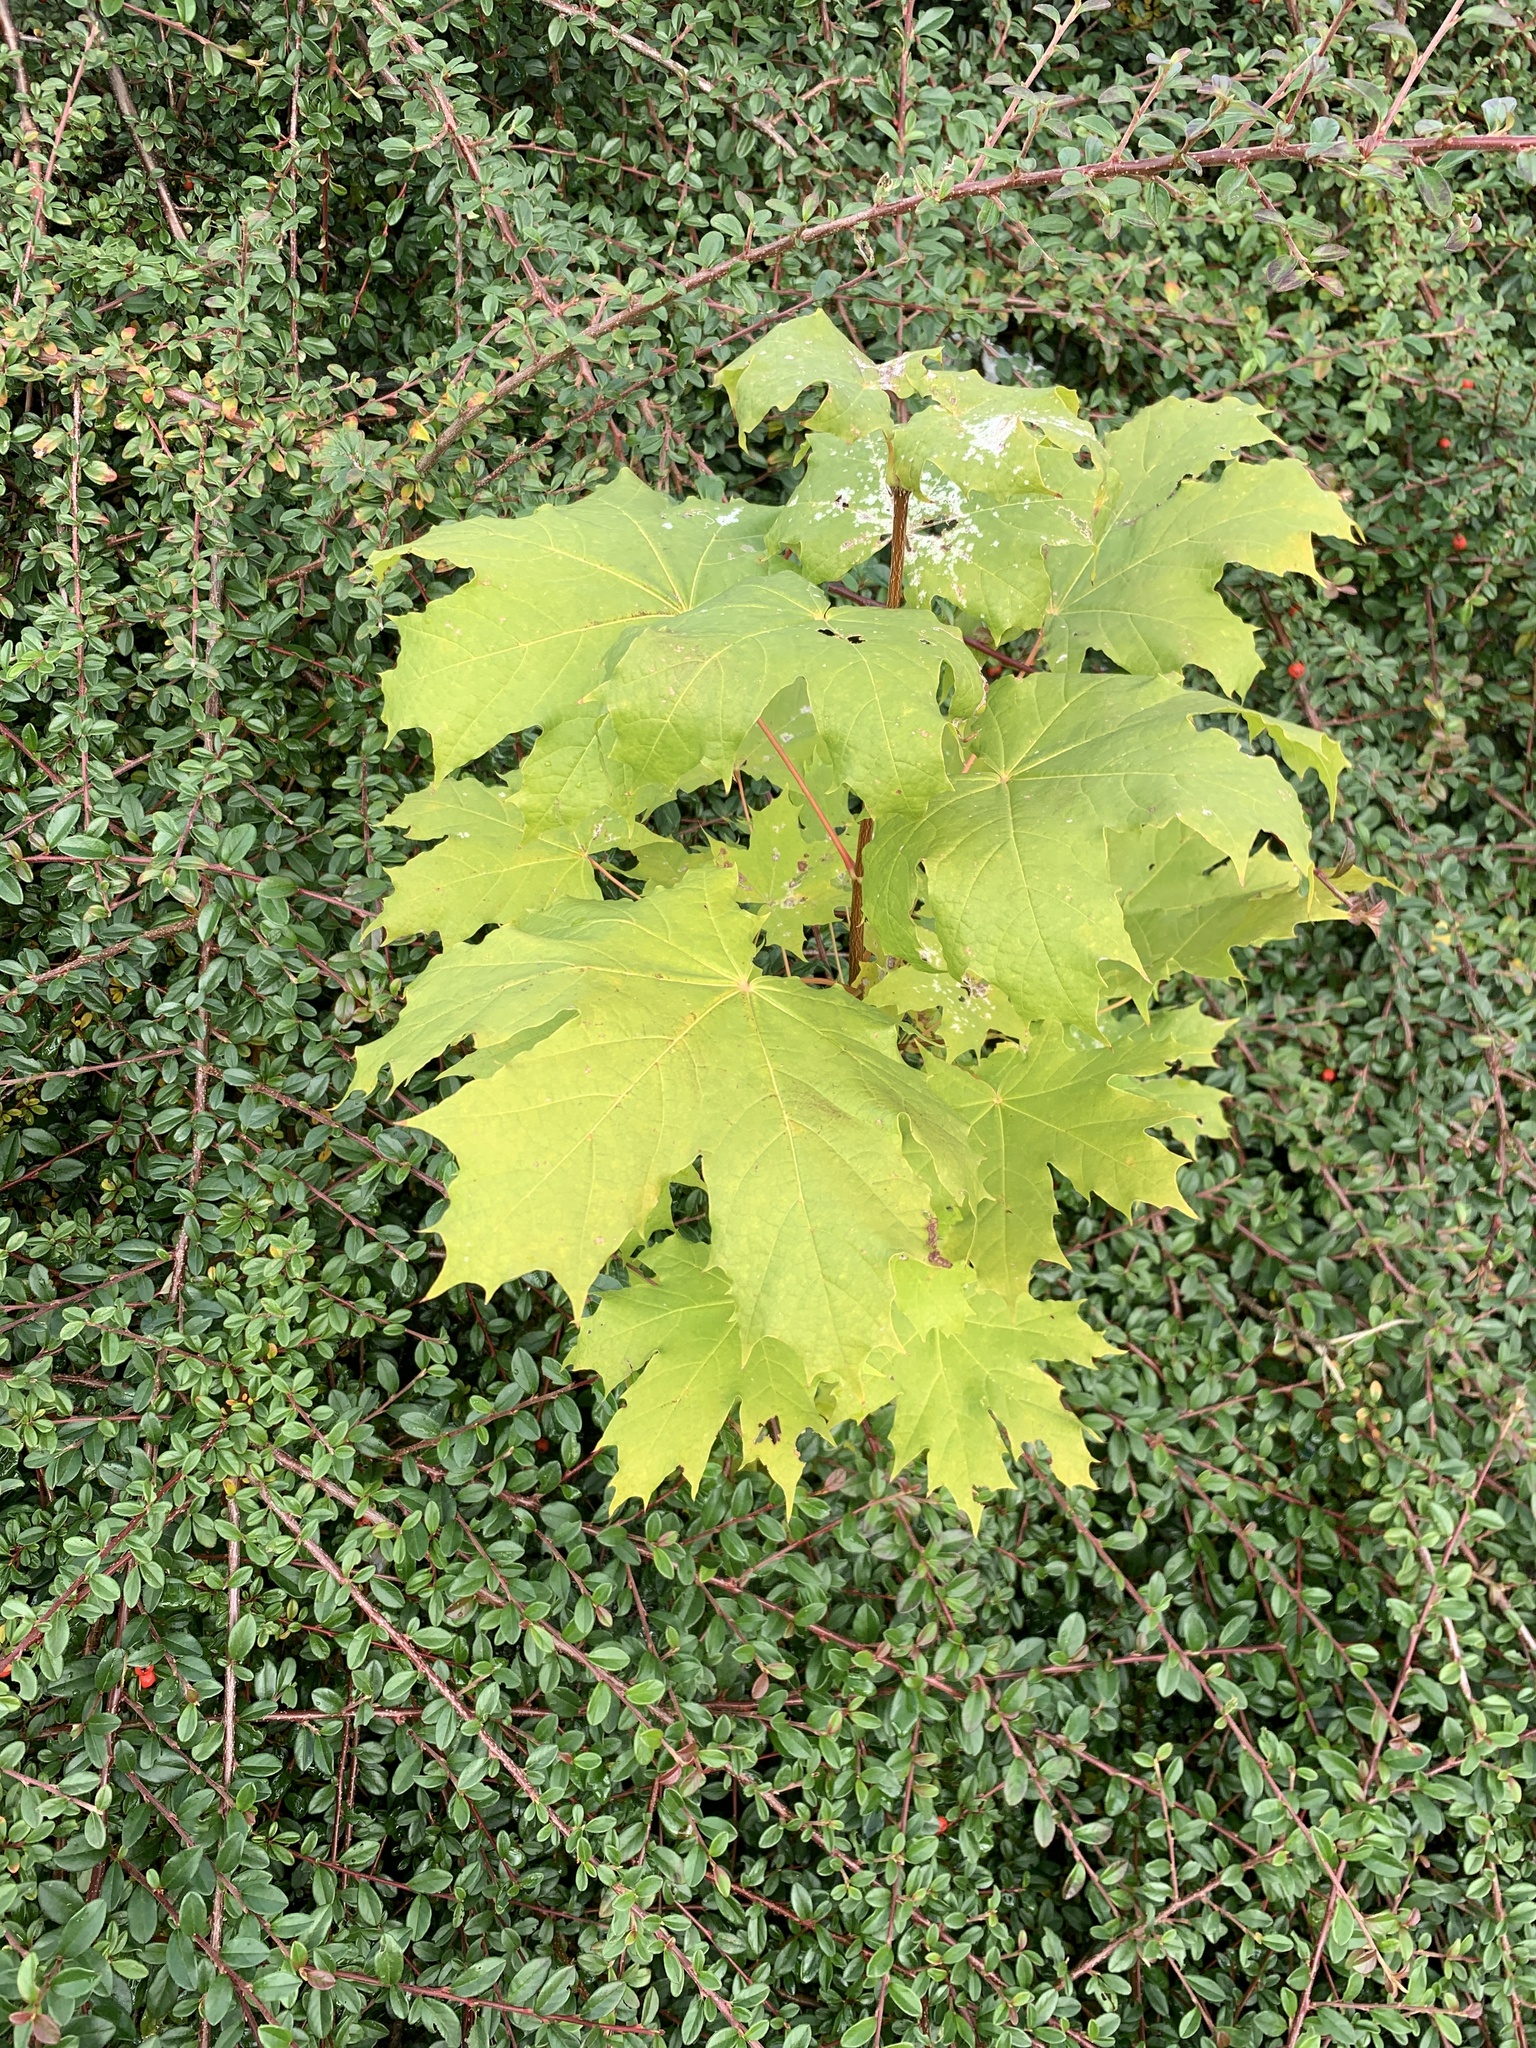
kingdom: Plantae
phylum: Tracheophyta
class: Magnoliopsida
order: Sapindales
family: Sapindaceae
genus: Acer
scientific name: Acer platanoides
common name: Norway maple
